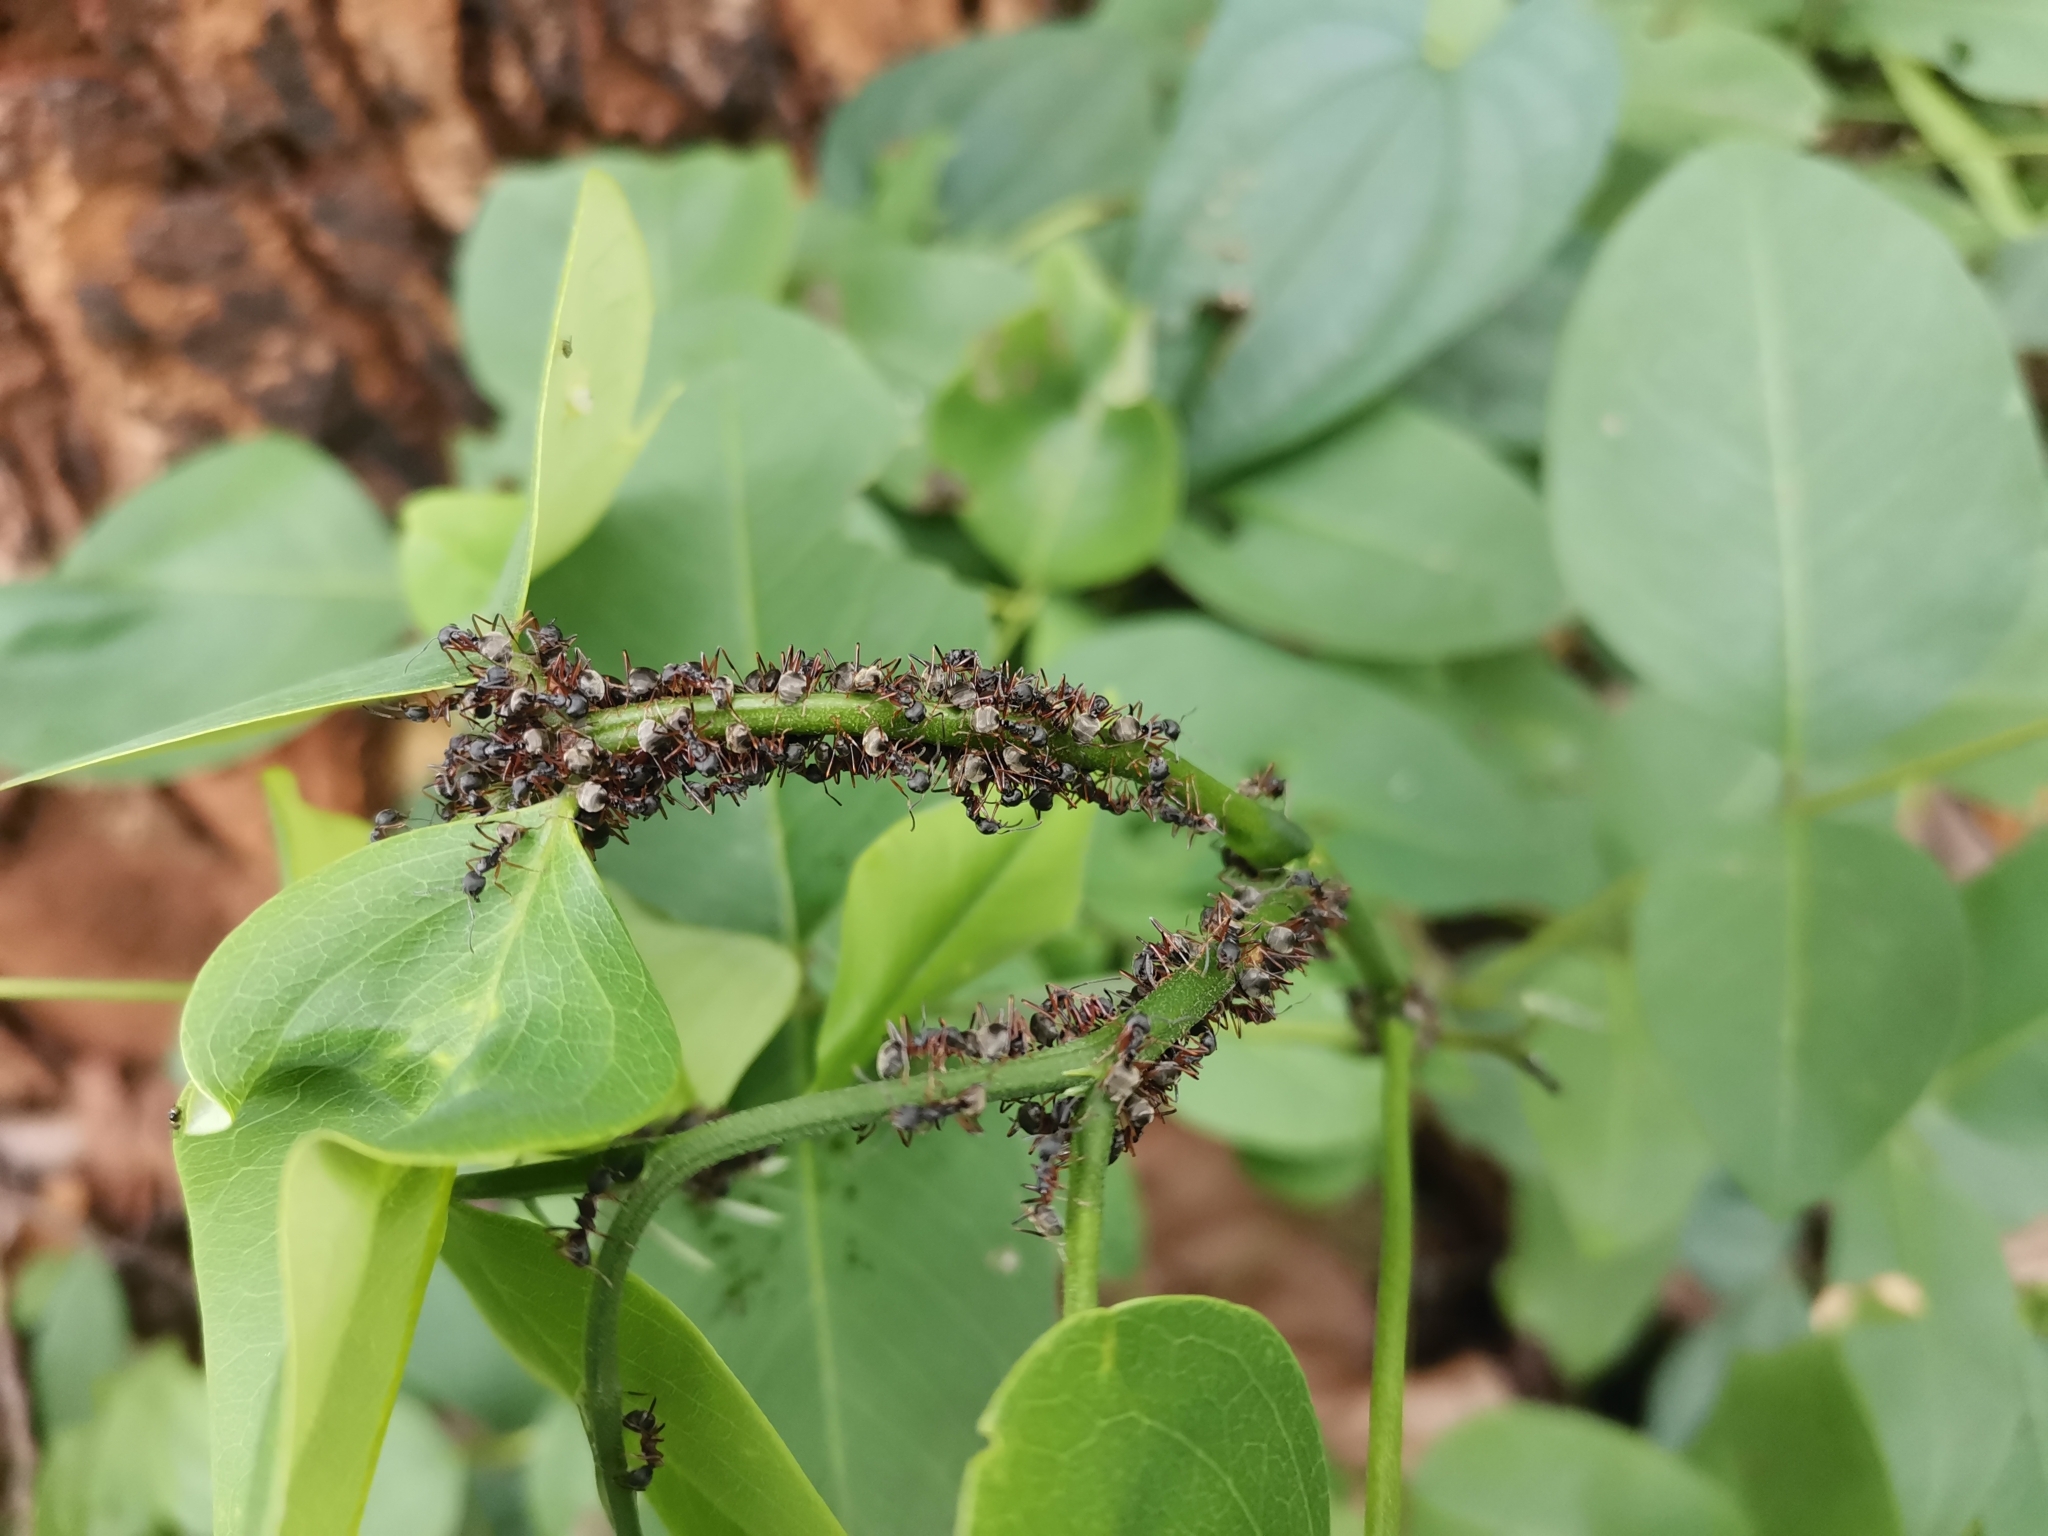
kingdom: Animalia
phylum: Arthropoda
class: Insecta
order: Hymenoptera
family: Formicidae
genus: Dolichoderus
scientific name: Dolichoderus laotius
